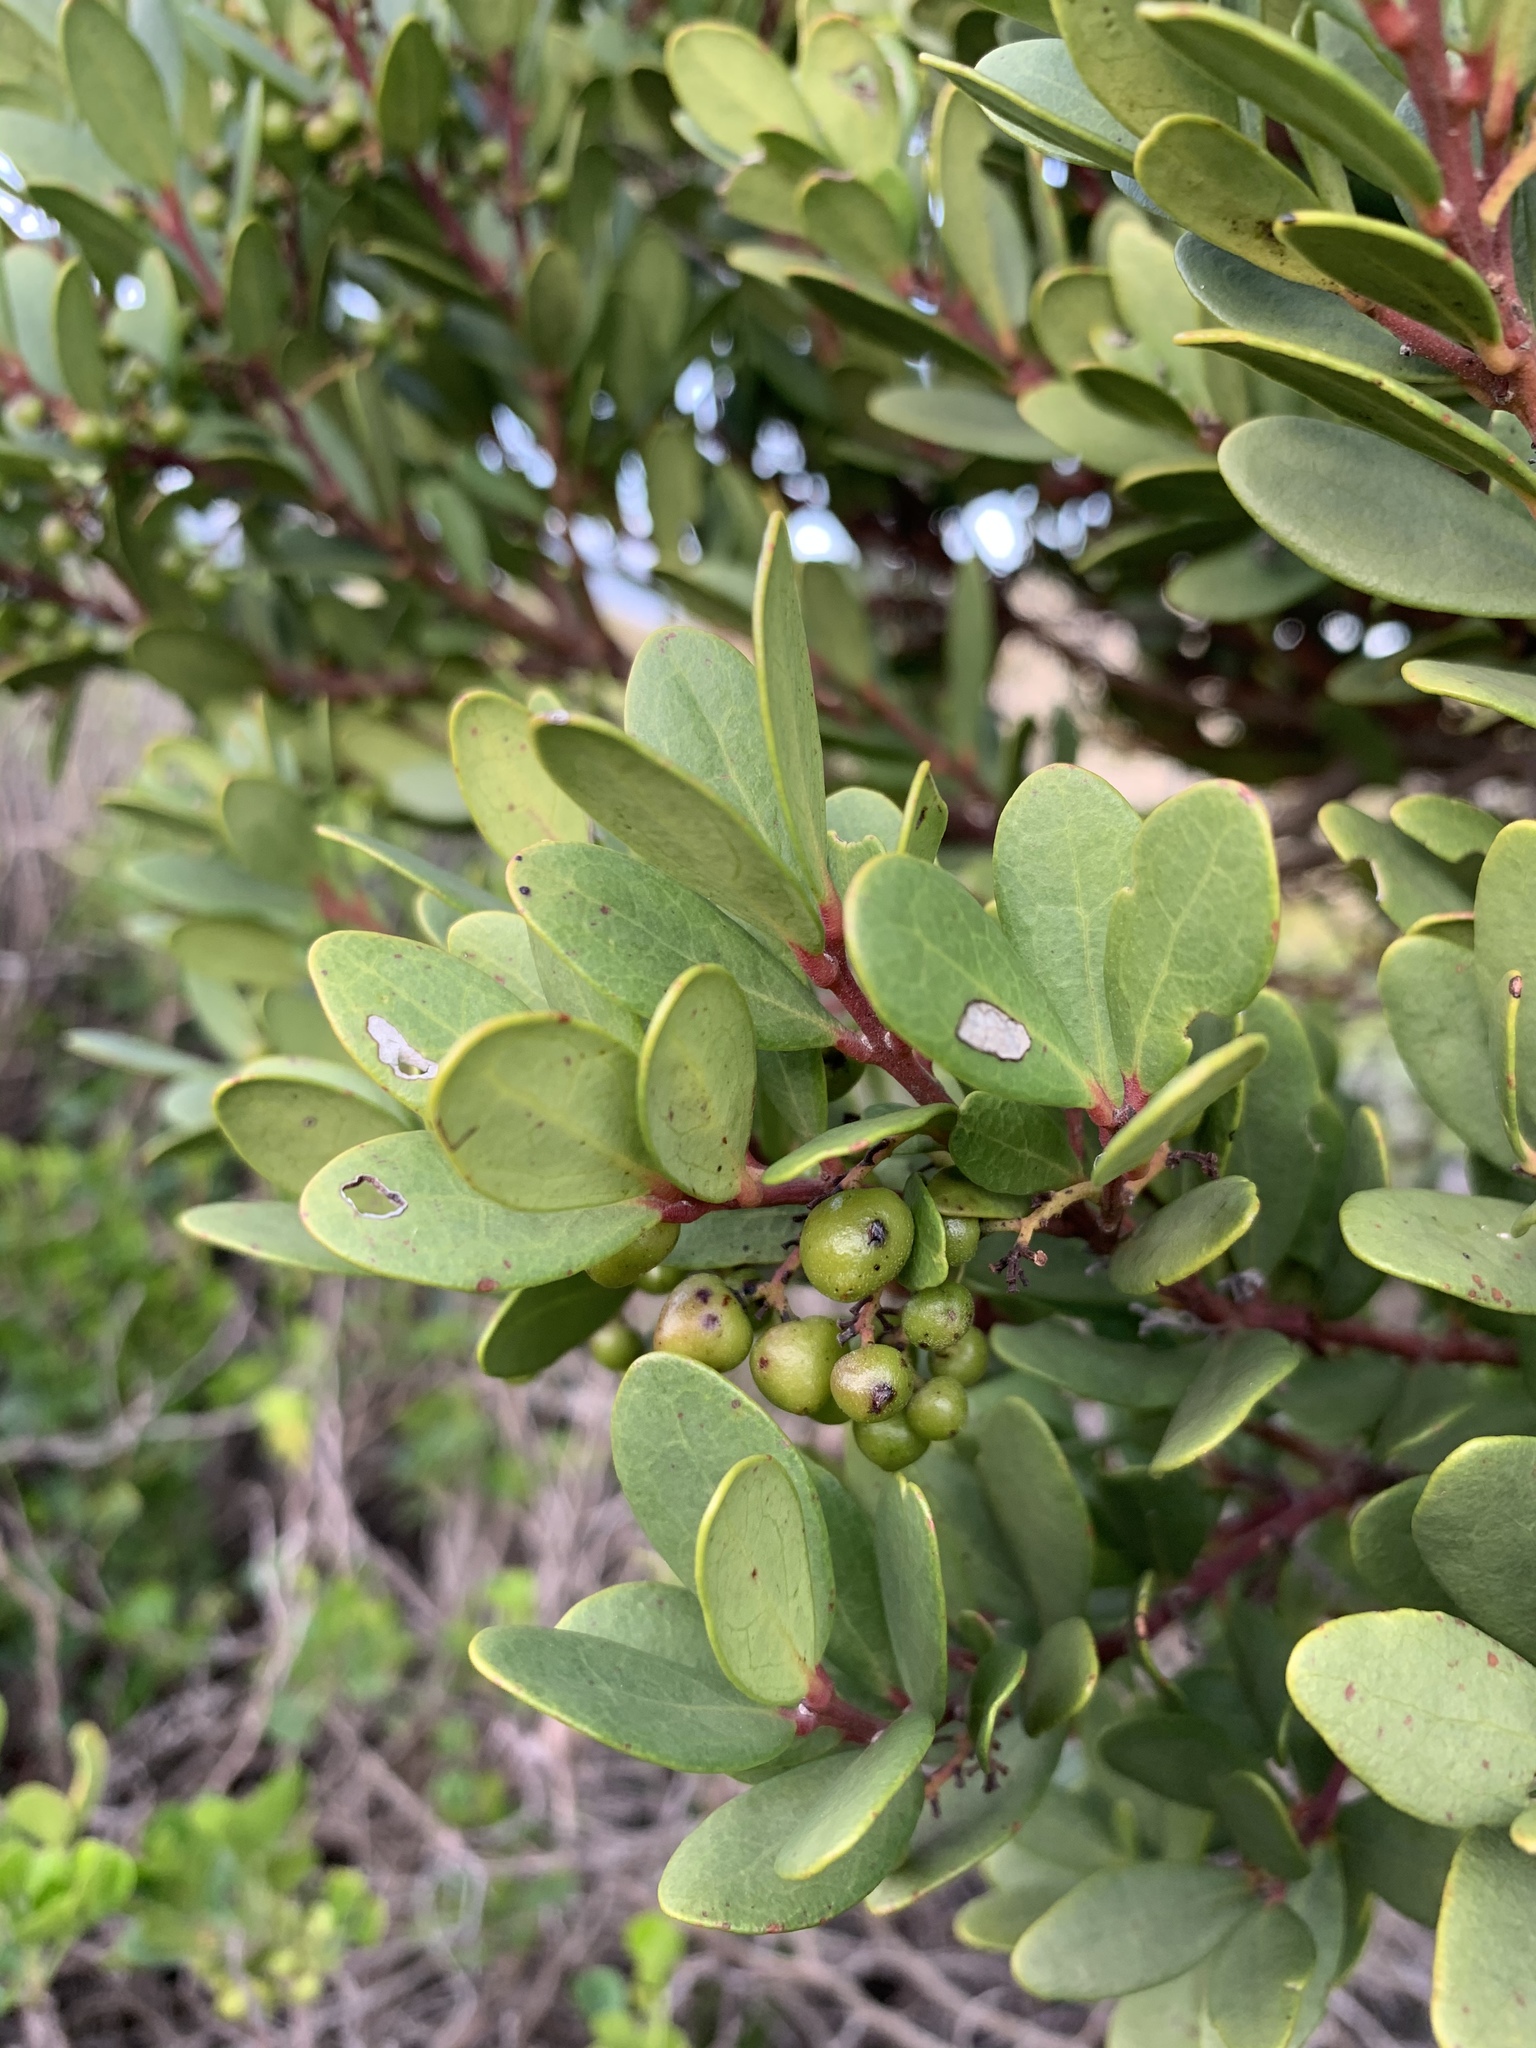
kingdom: Plantae
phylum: Tracheophyta
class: Magnoliopsida
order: Ericales
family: Ebenaceae
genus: Euclea
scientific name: Euclea racemosa
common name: Dune guarri
